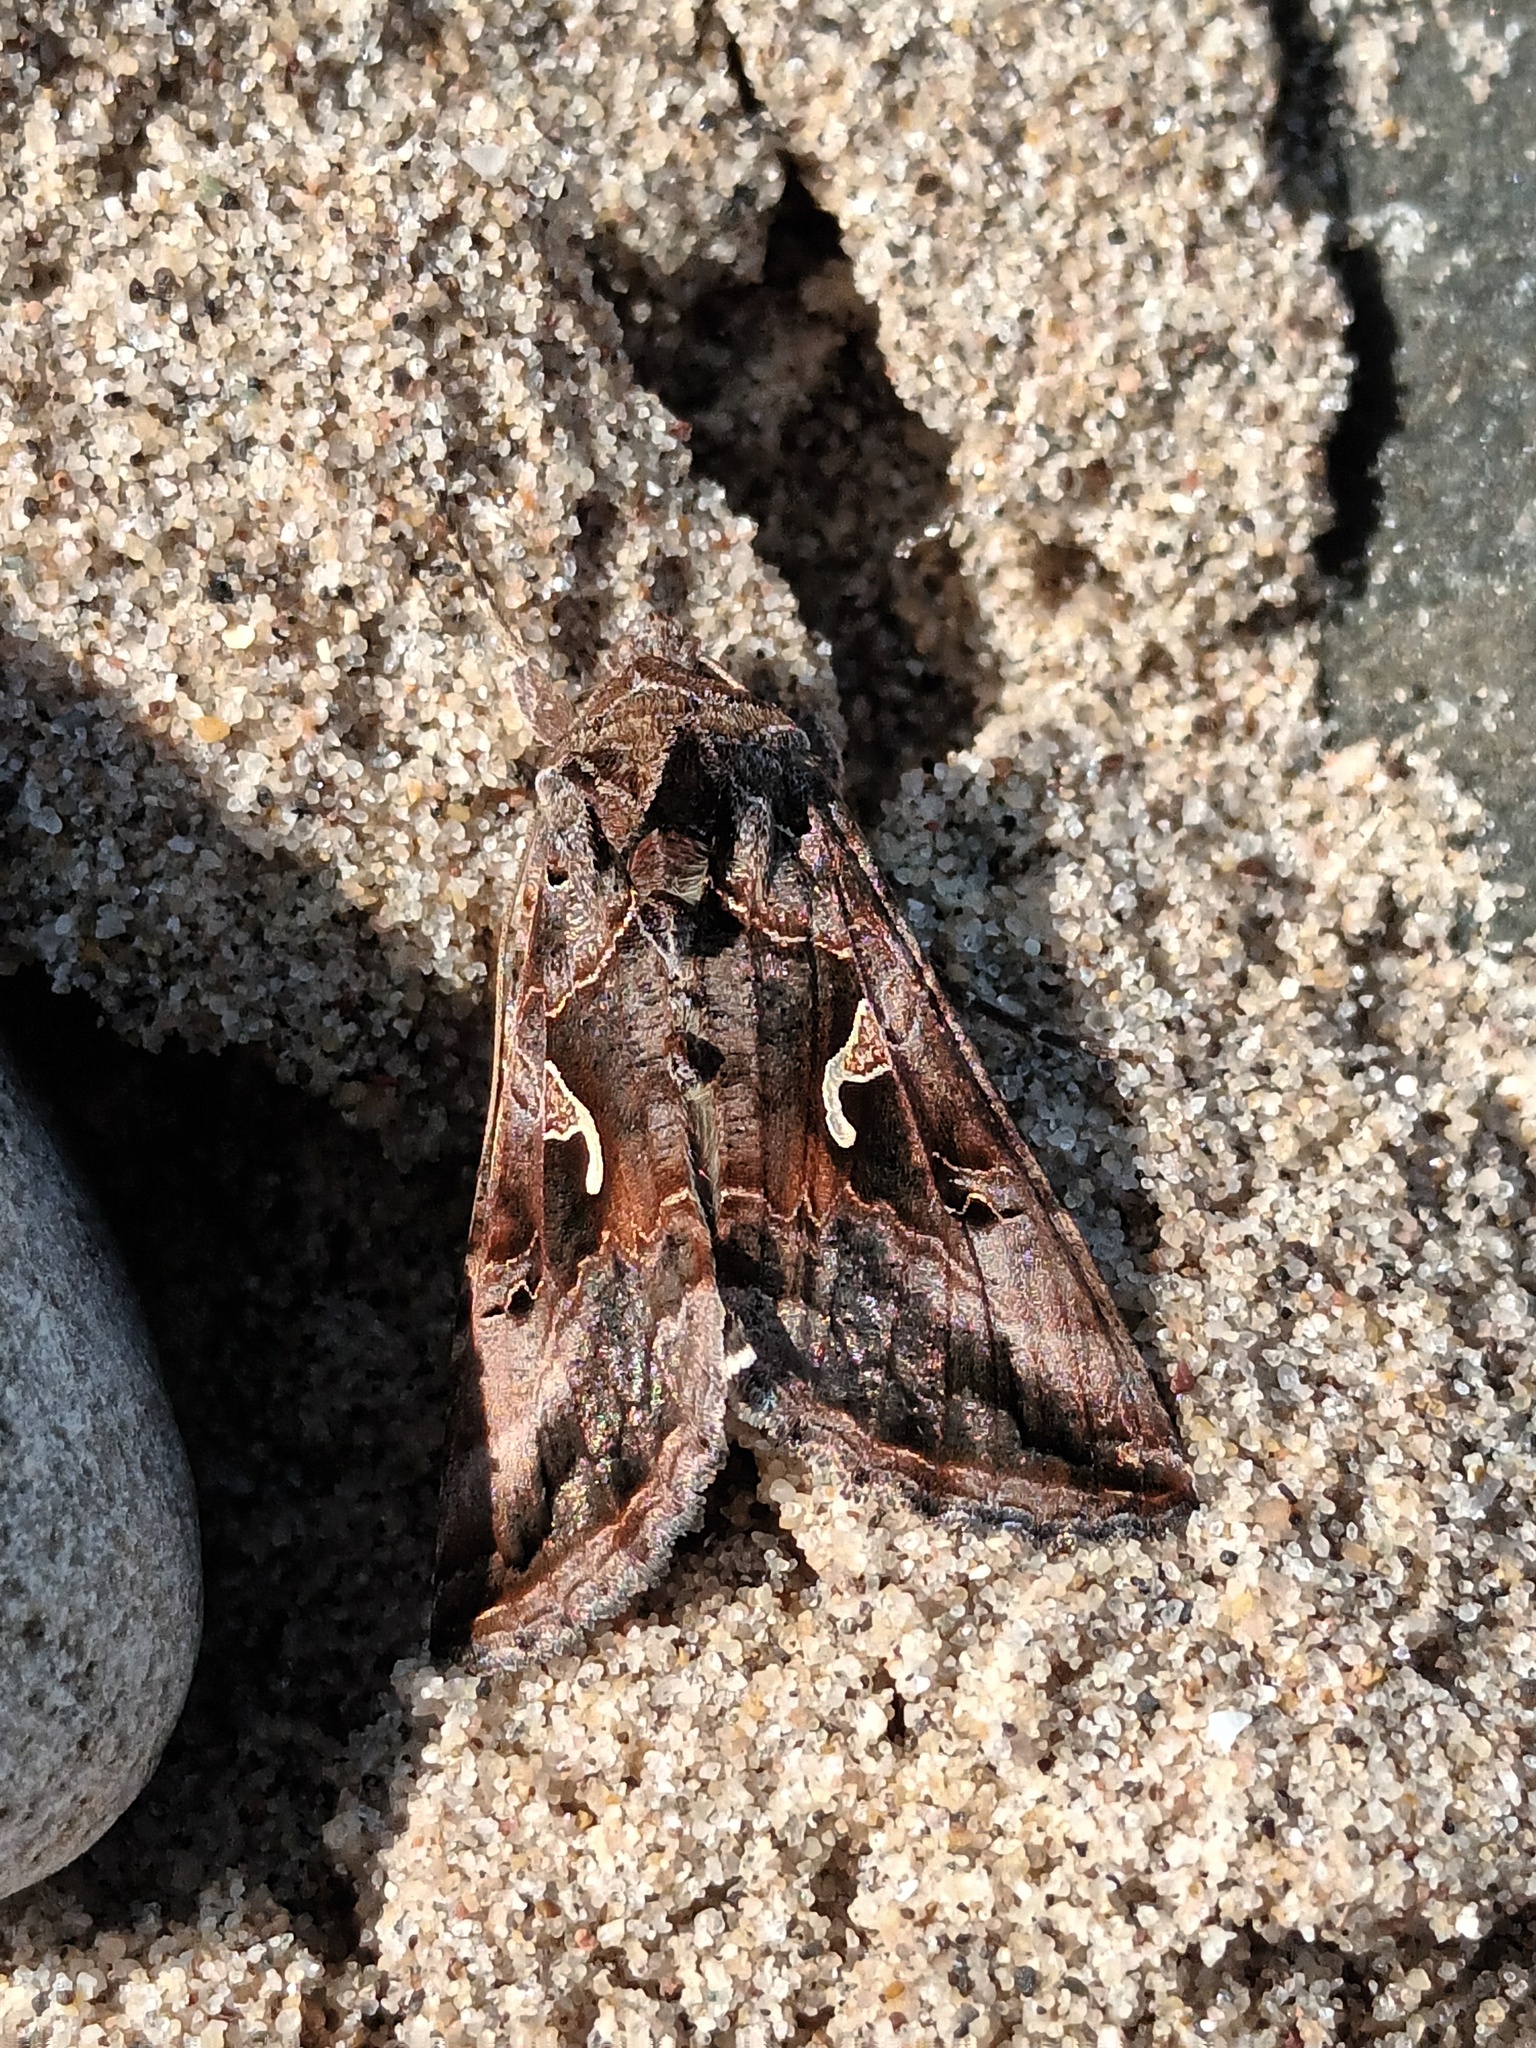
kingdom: Animalia
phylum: Arthropoda
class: Insecta
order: Lepidoptera
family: Noctuidae
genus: Autographa
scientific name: Autographa gamma
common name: Silver y
